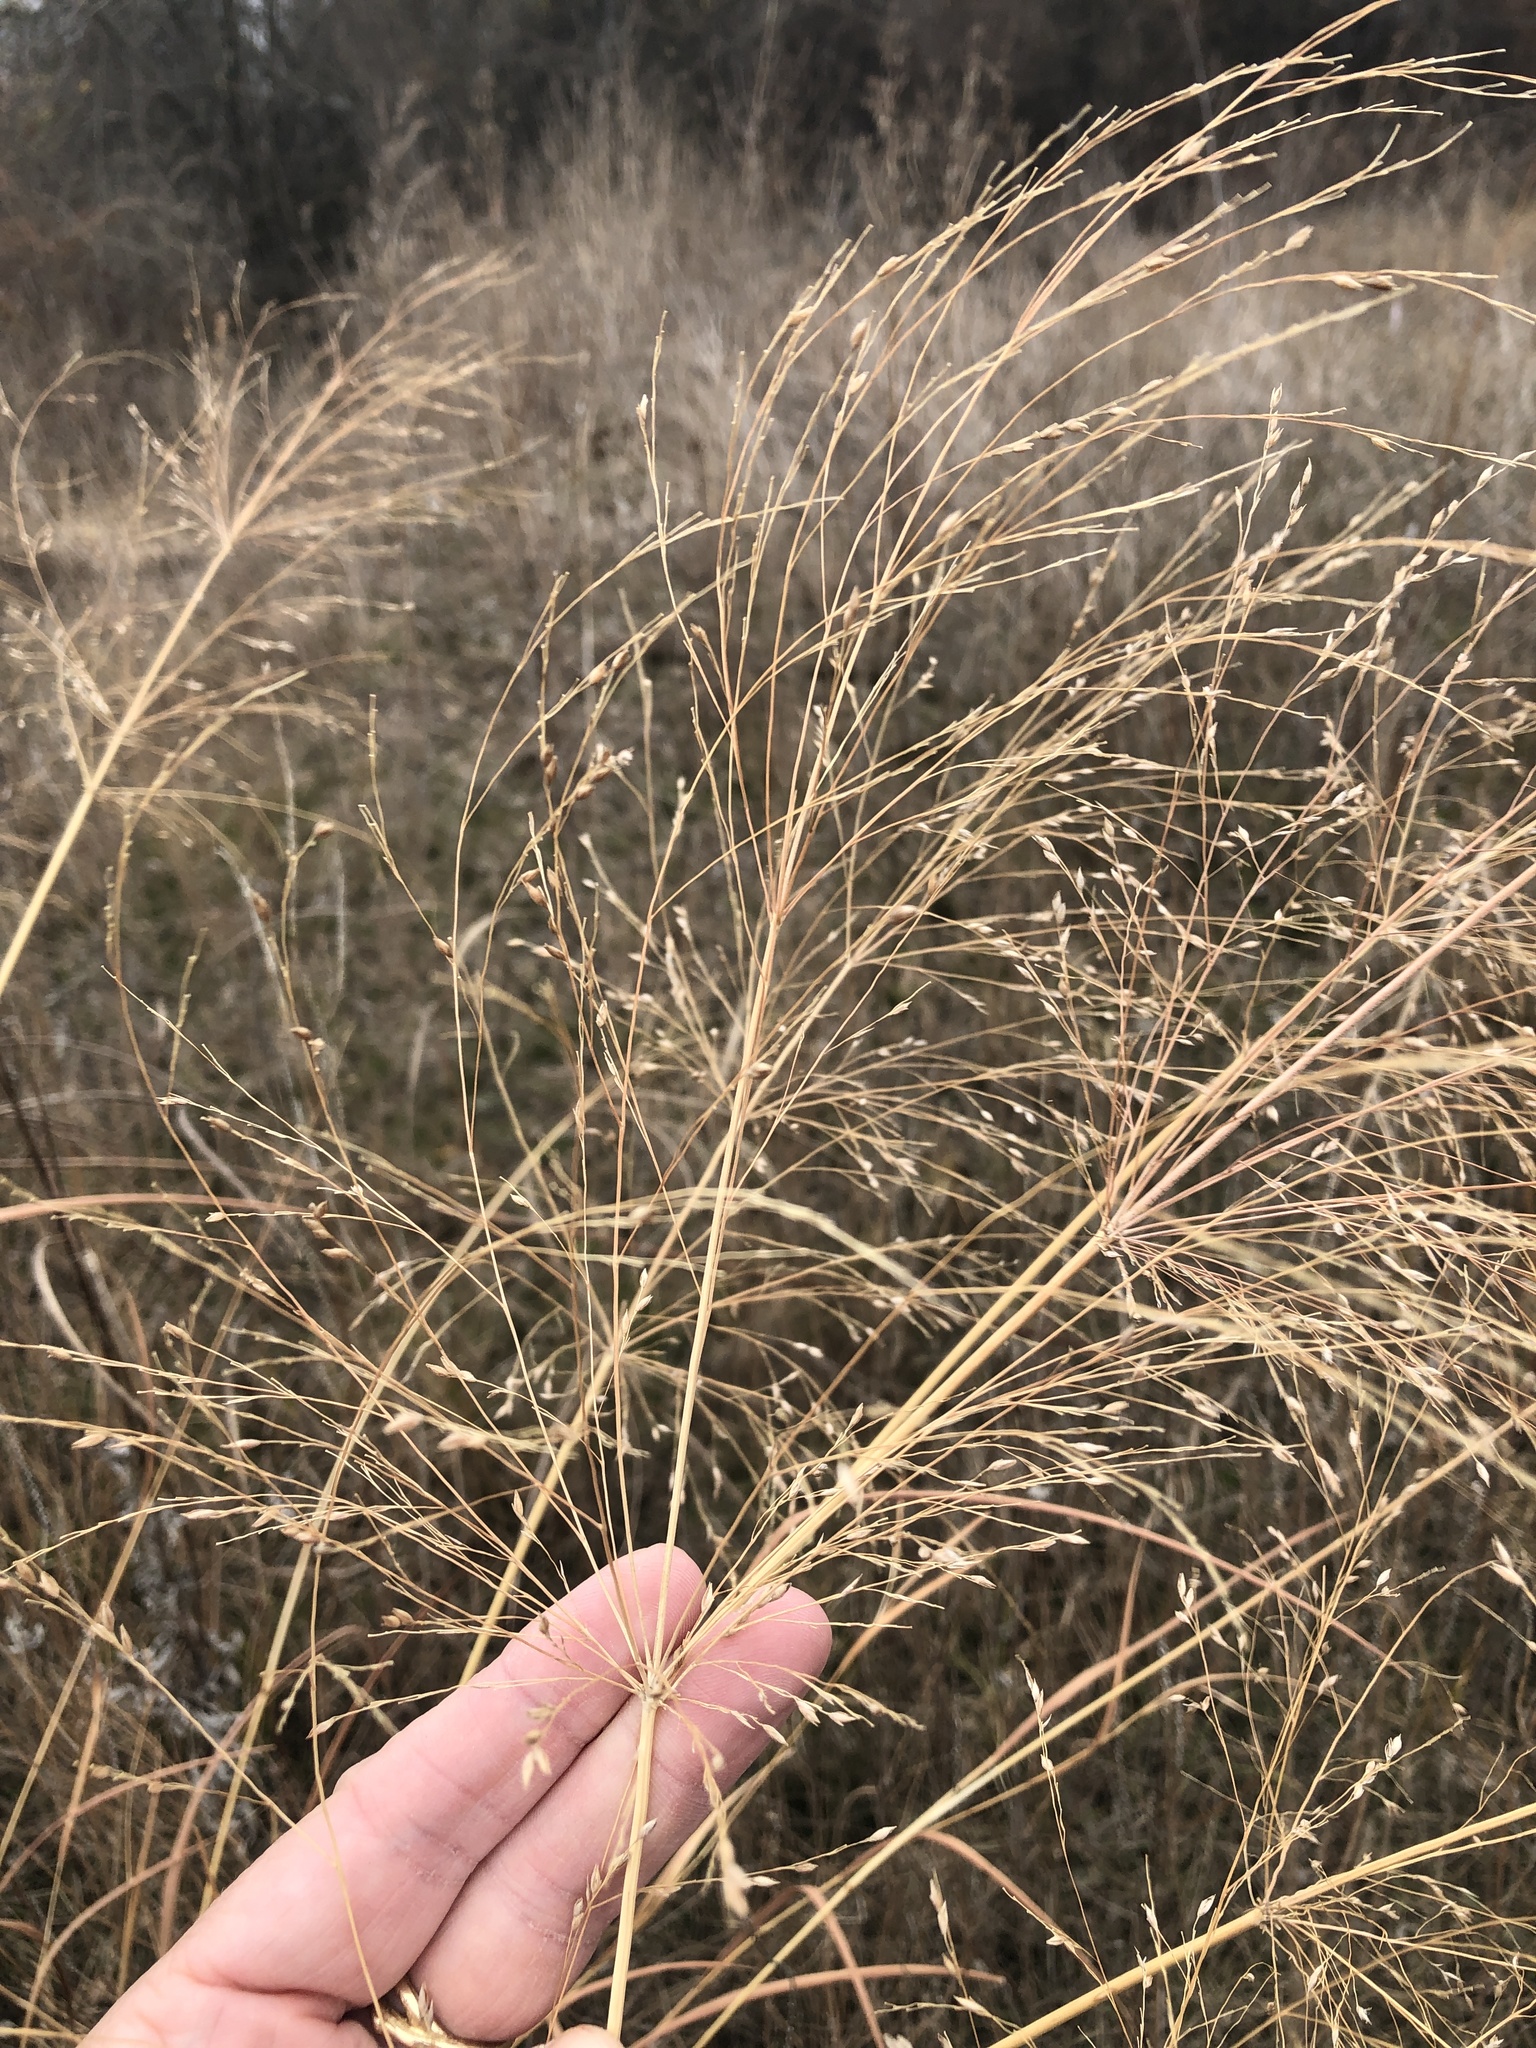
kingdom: Plantae
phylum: Tracheophyta
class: Liliopsida
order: Poales
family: Poaceae
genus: Panicum
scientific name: Panicum virgatum
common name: Switchgrass
